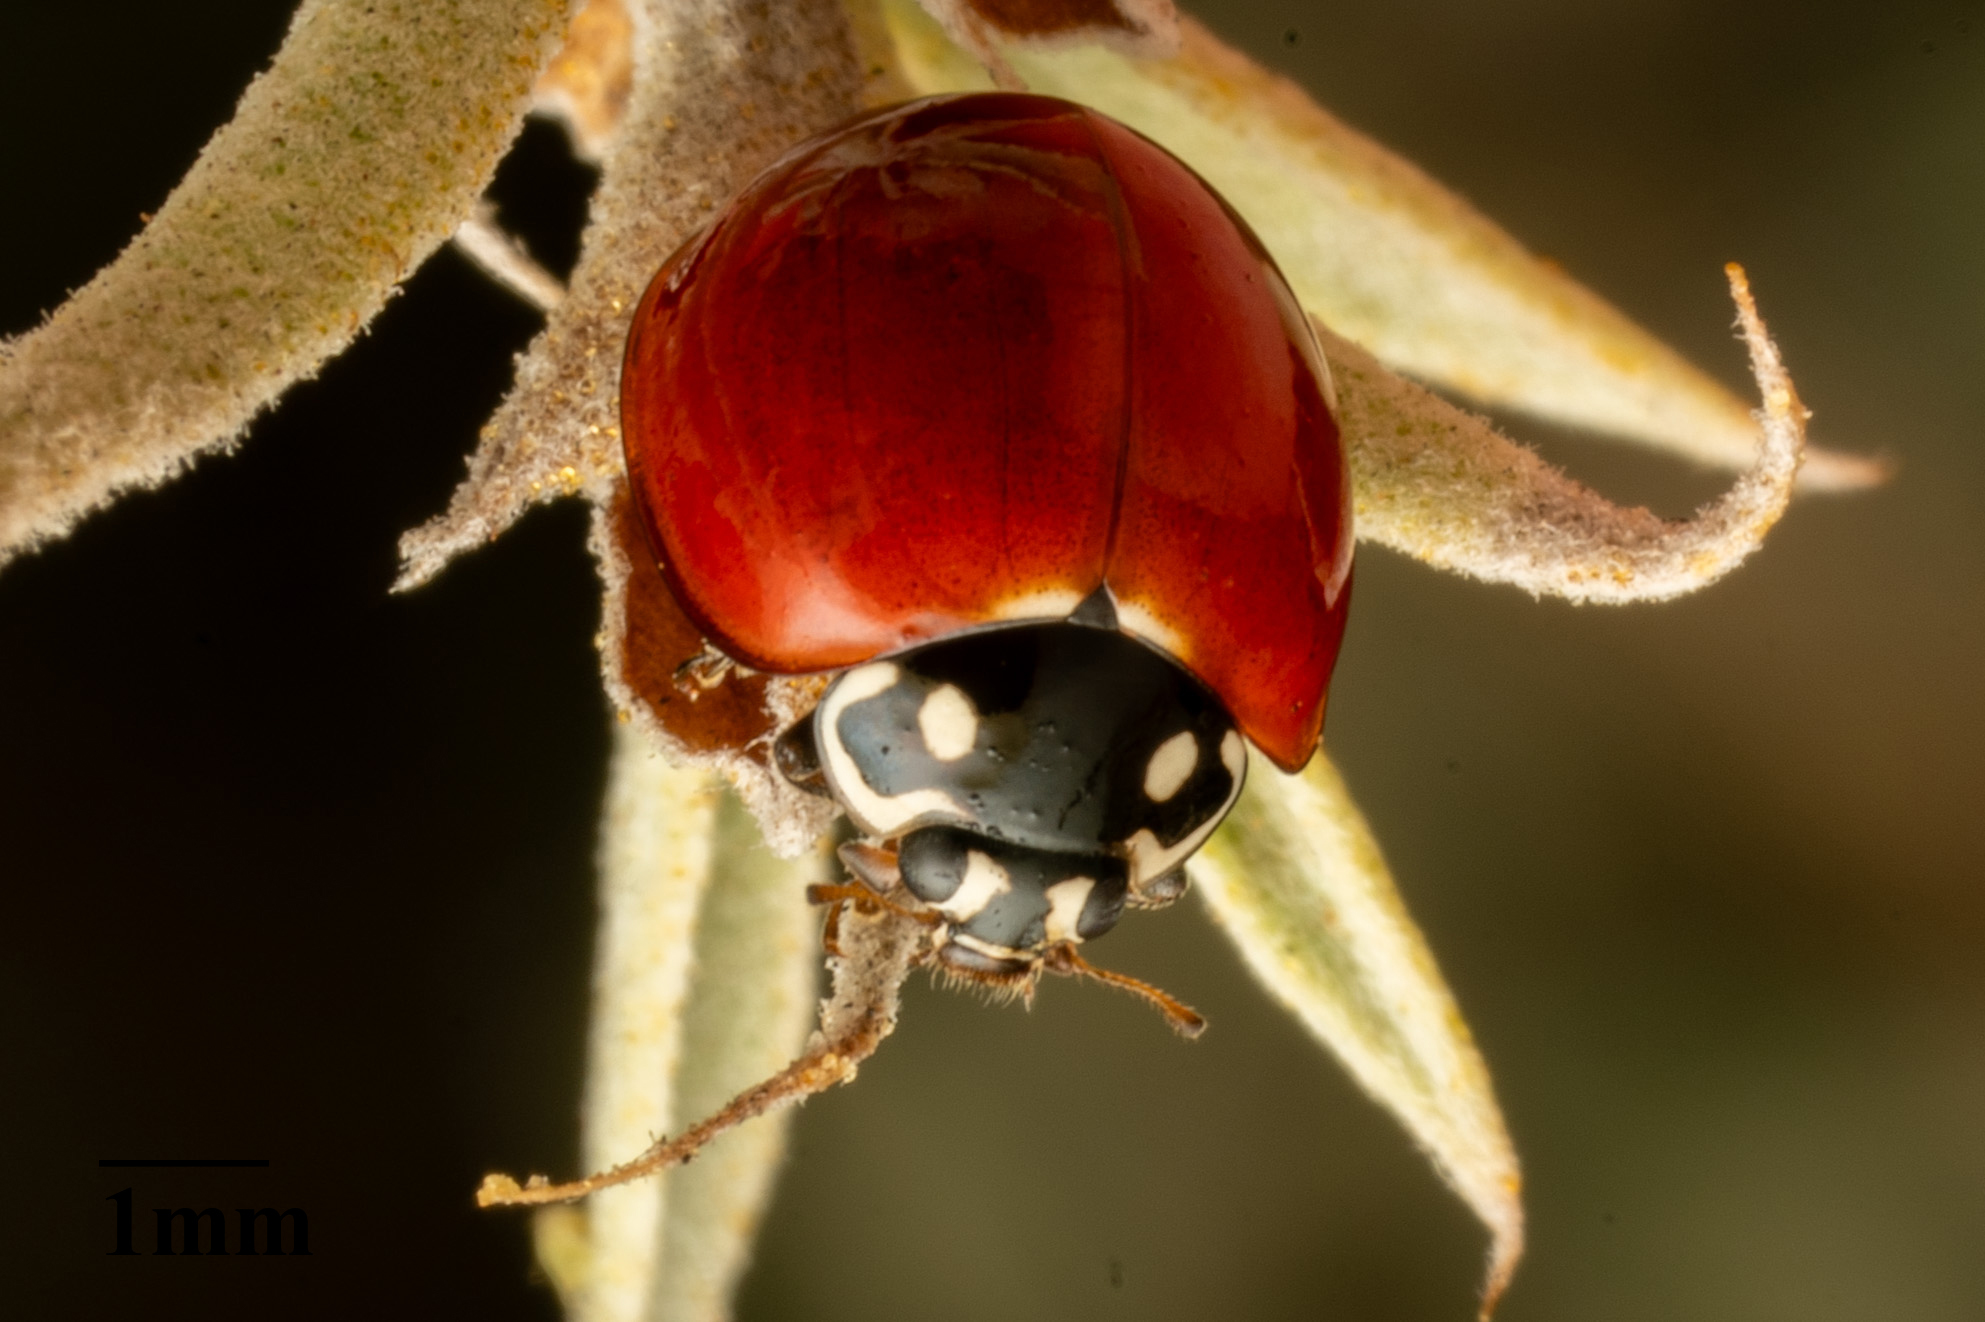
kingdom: Animalia
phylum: Arthropoda
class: Insecta
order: Coleoptera
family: Coccinellidae
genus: Cycloneda
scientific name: Cycloneda sanguinea
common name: Ladybird beetle
